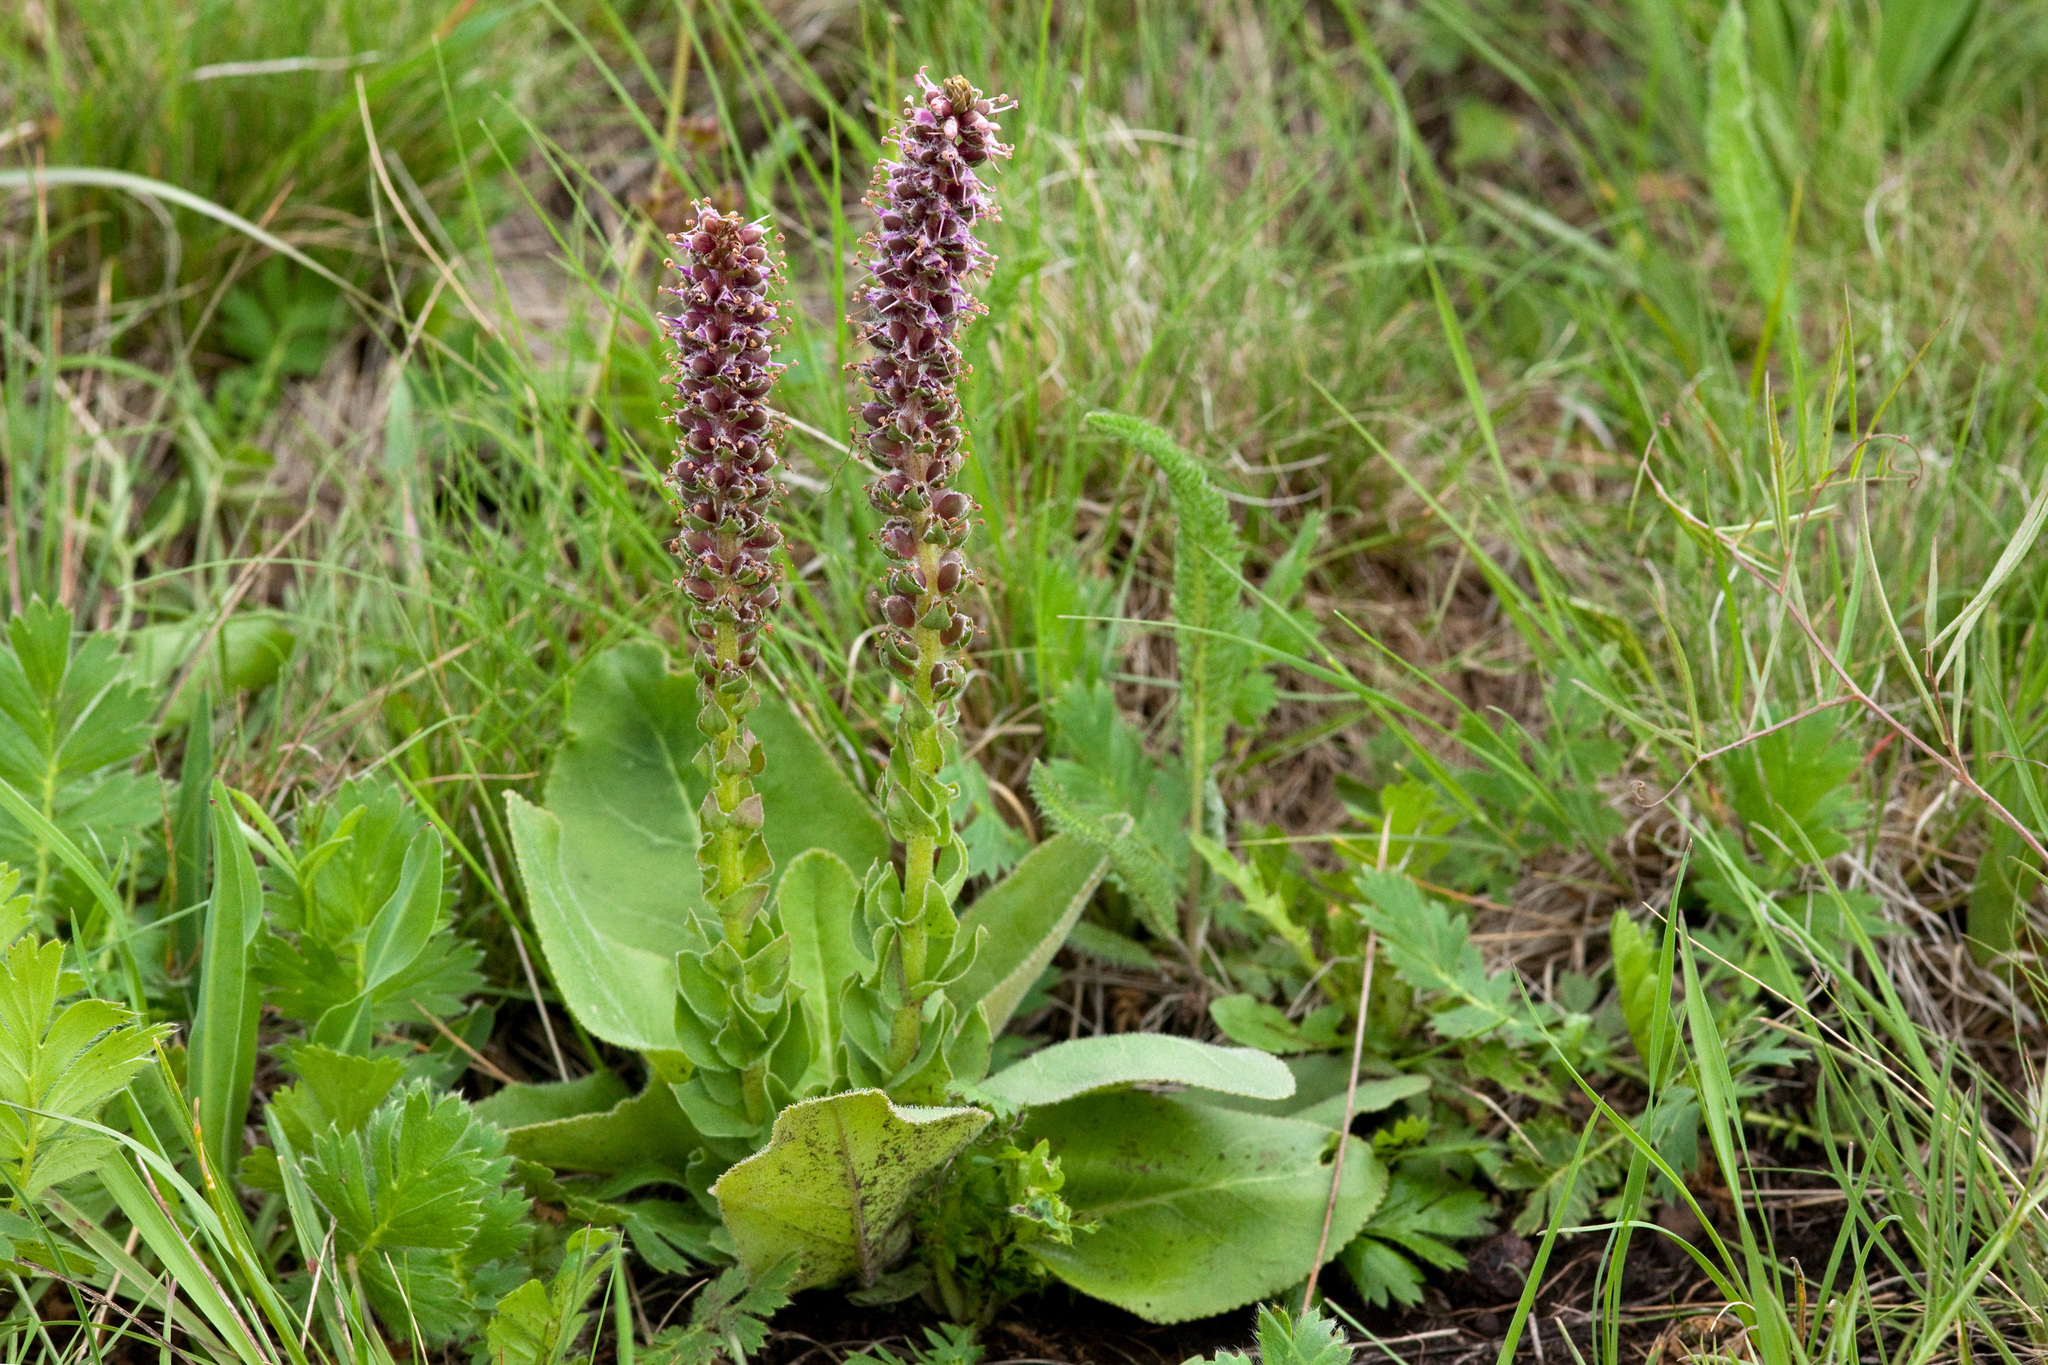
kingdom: Plantae
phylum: Tracheophyta
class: Magnoliopsida
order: Lamiales
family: Plantaginaceae
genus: Veronica
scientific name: Veronica plantaginea
